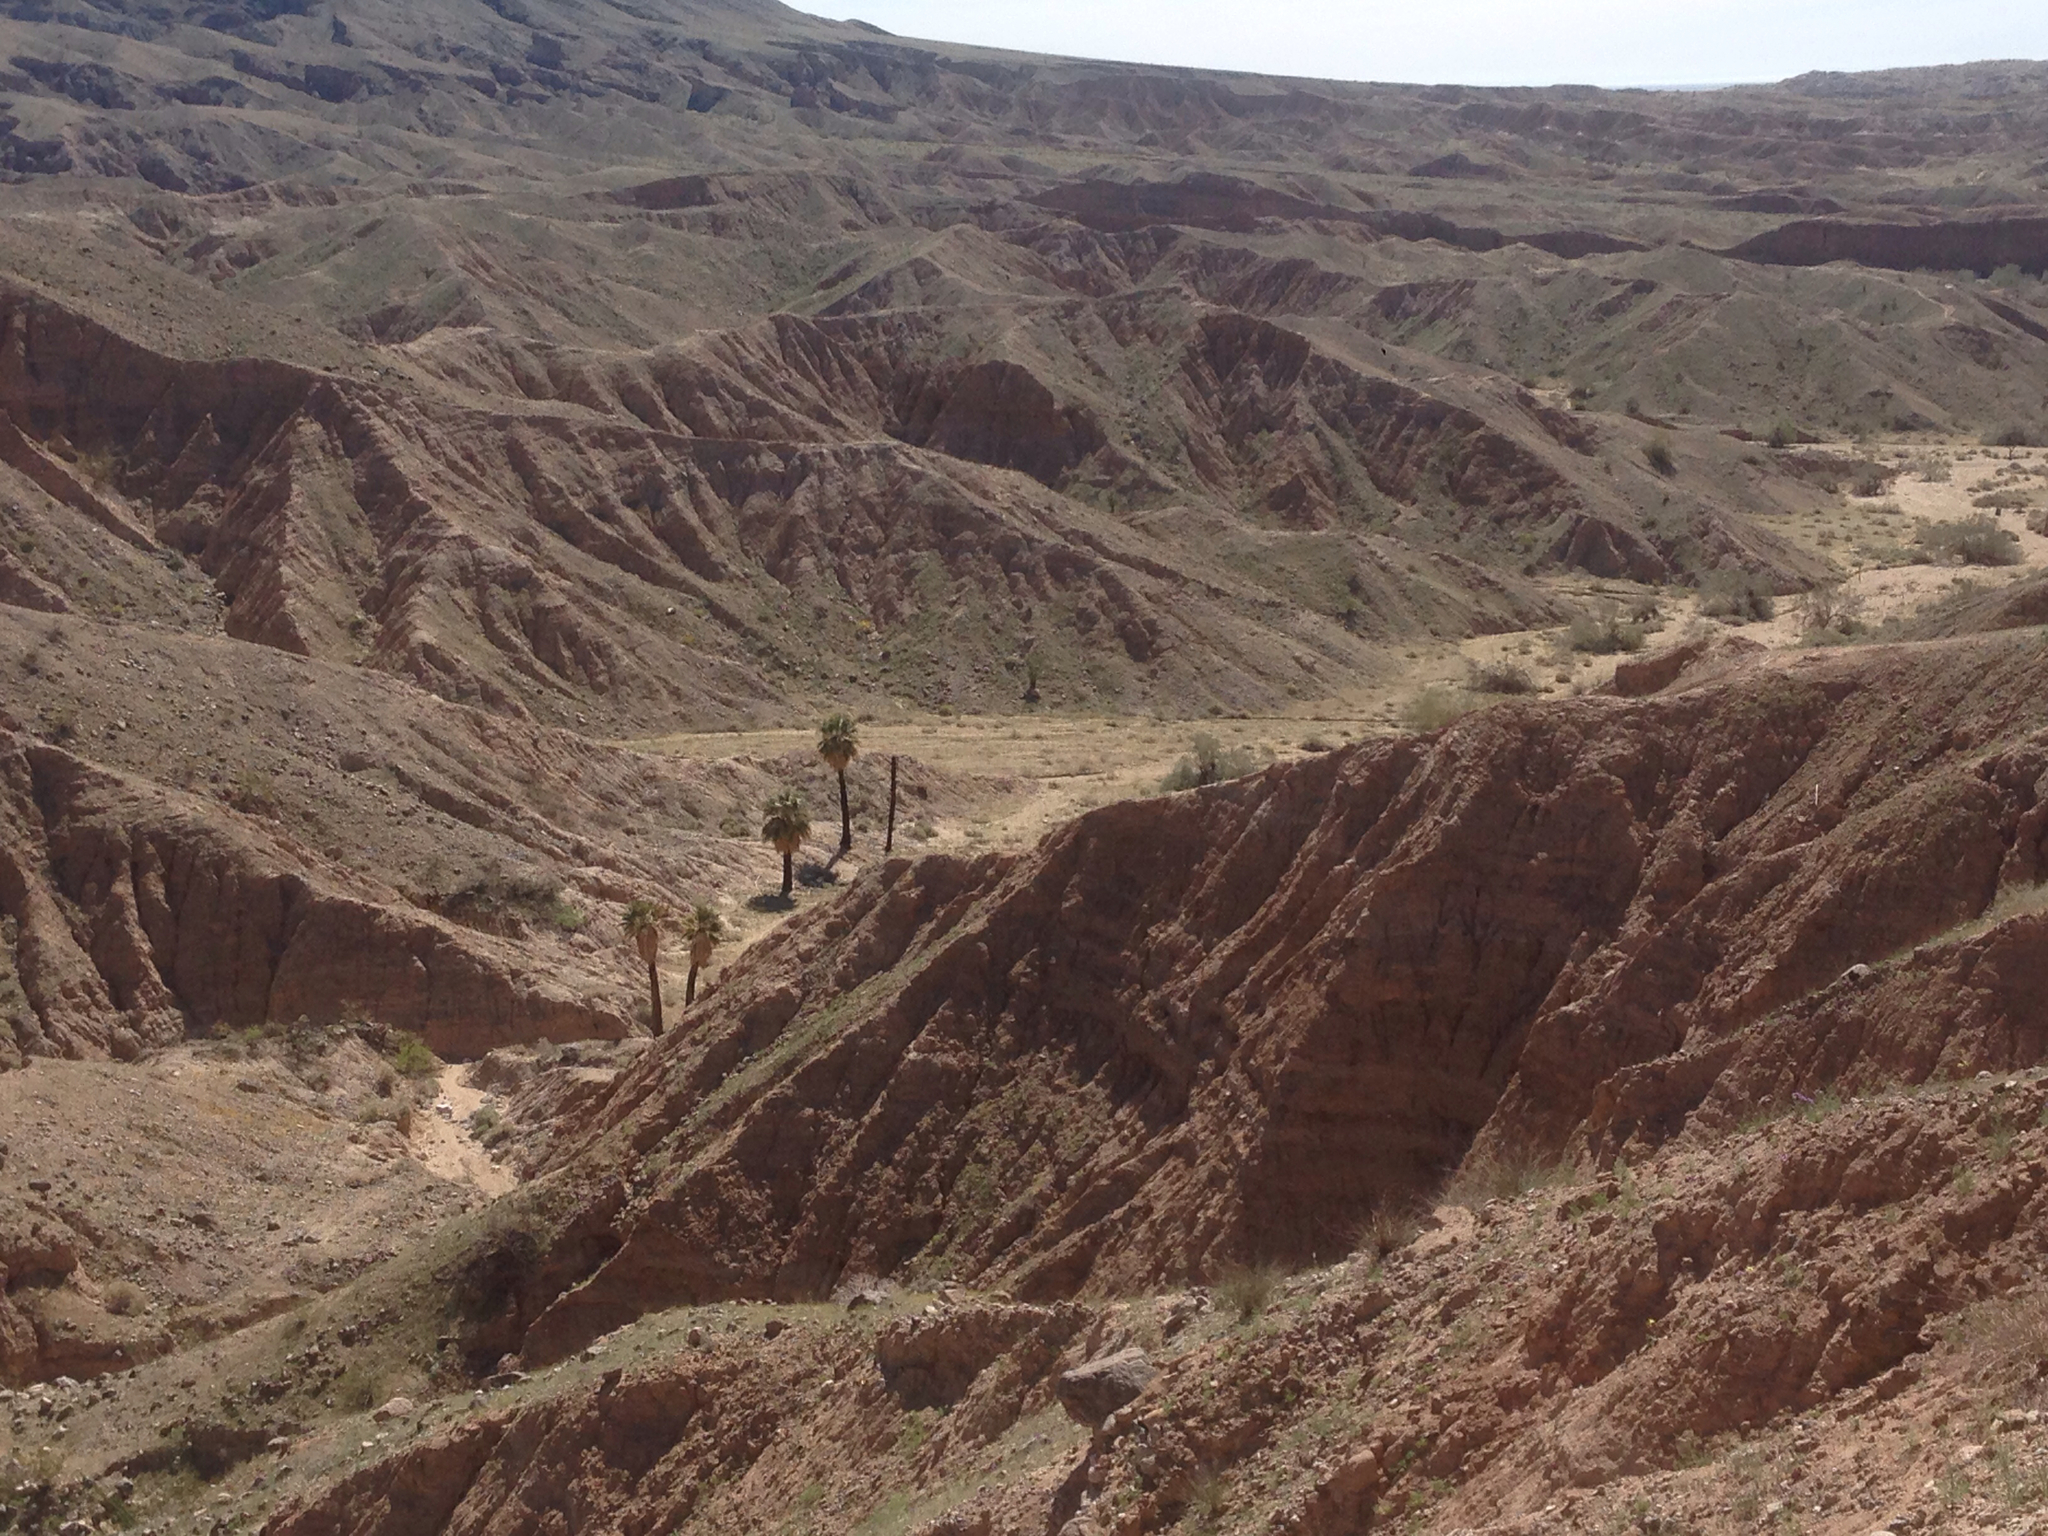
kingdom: Plantae
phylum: Tracheophyta
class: Liliopsida
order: Arecales
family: Arecaceae
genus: Washingtonia
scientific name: Washingtonia filifera
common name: California fan palm
